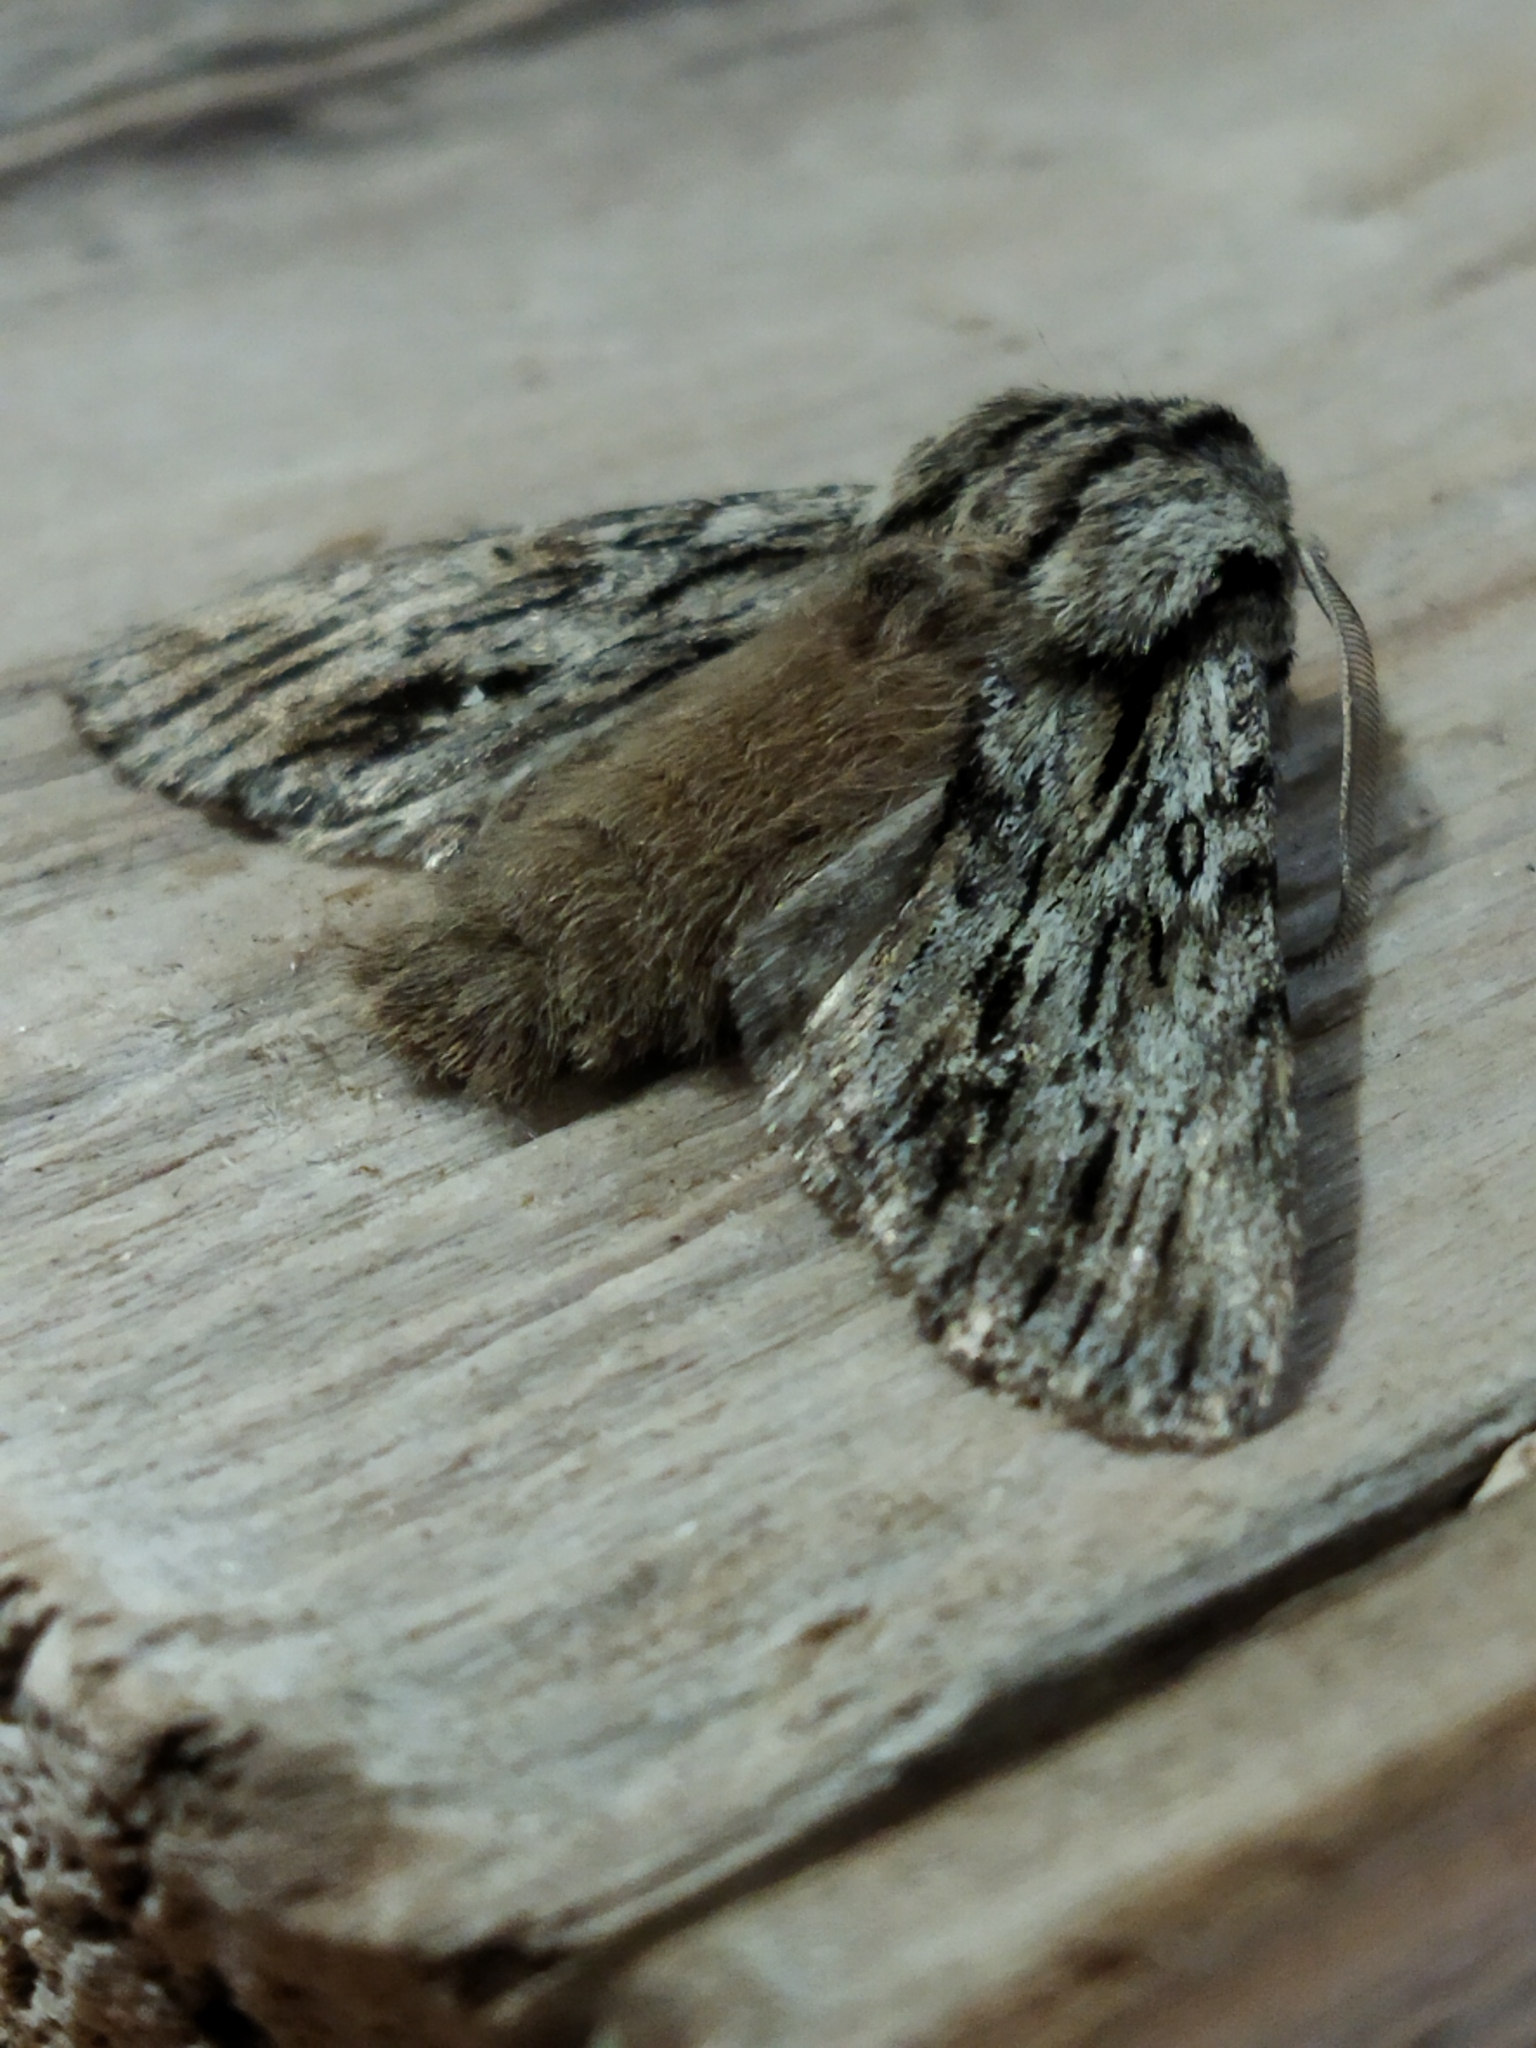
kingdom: Animalia
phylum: Arthropoda
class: Insecta
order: Lepidoptera
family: Noctuidae
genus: Asteroscopus
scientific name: Asteroscopus sphinx
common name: The sprawler
